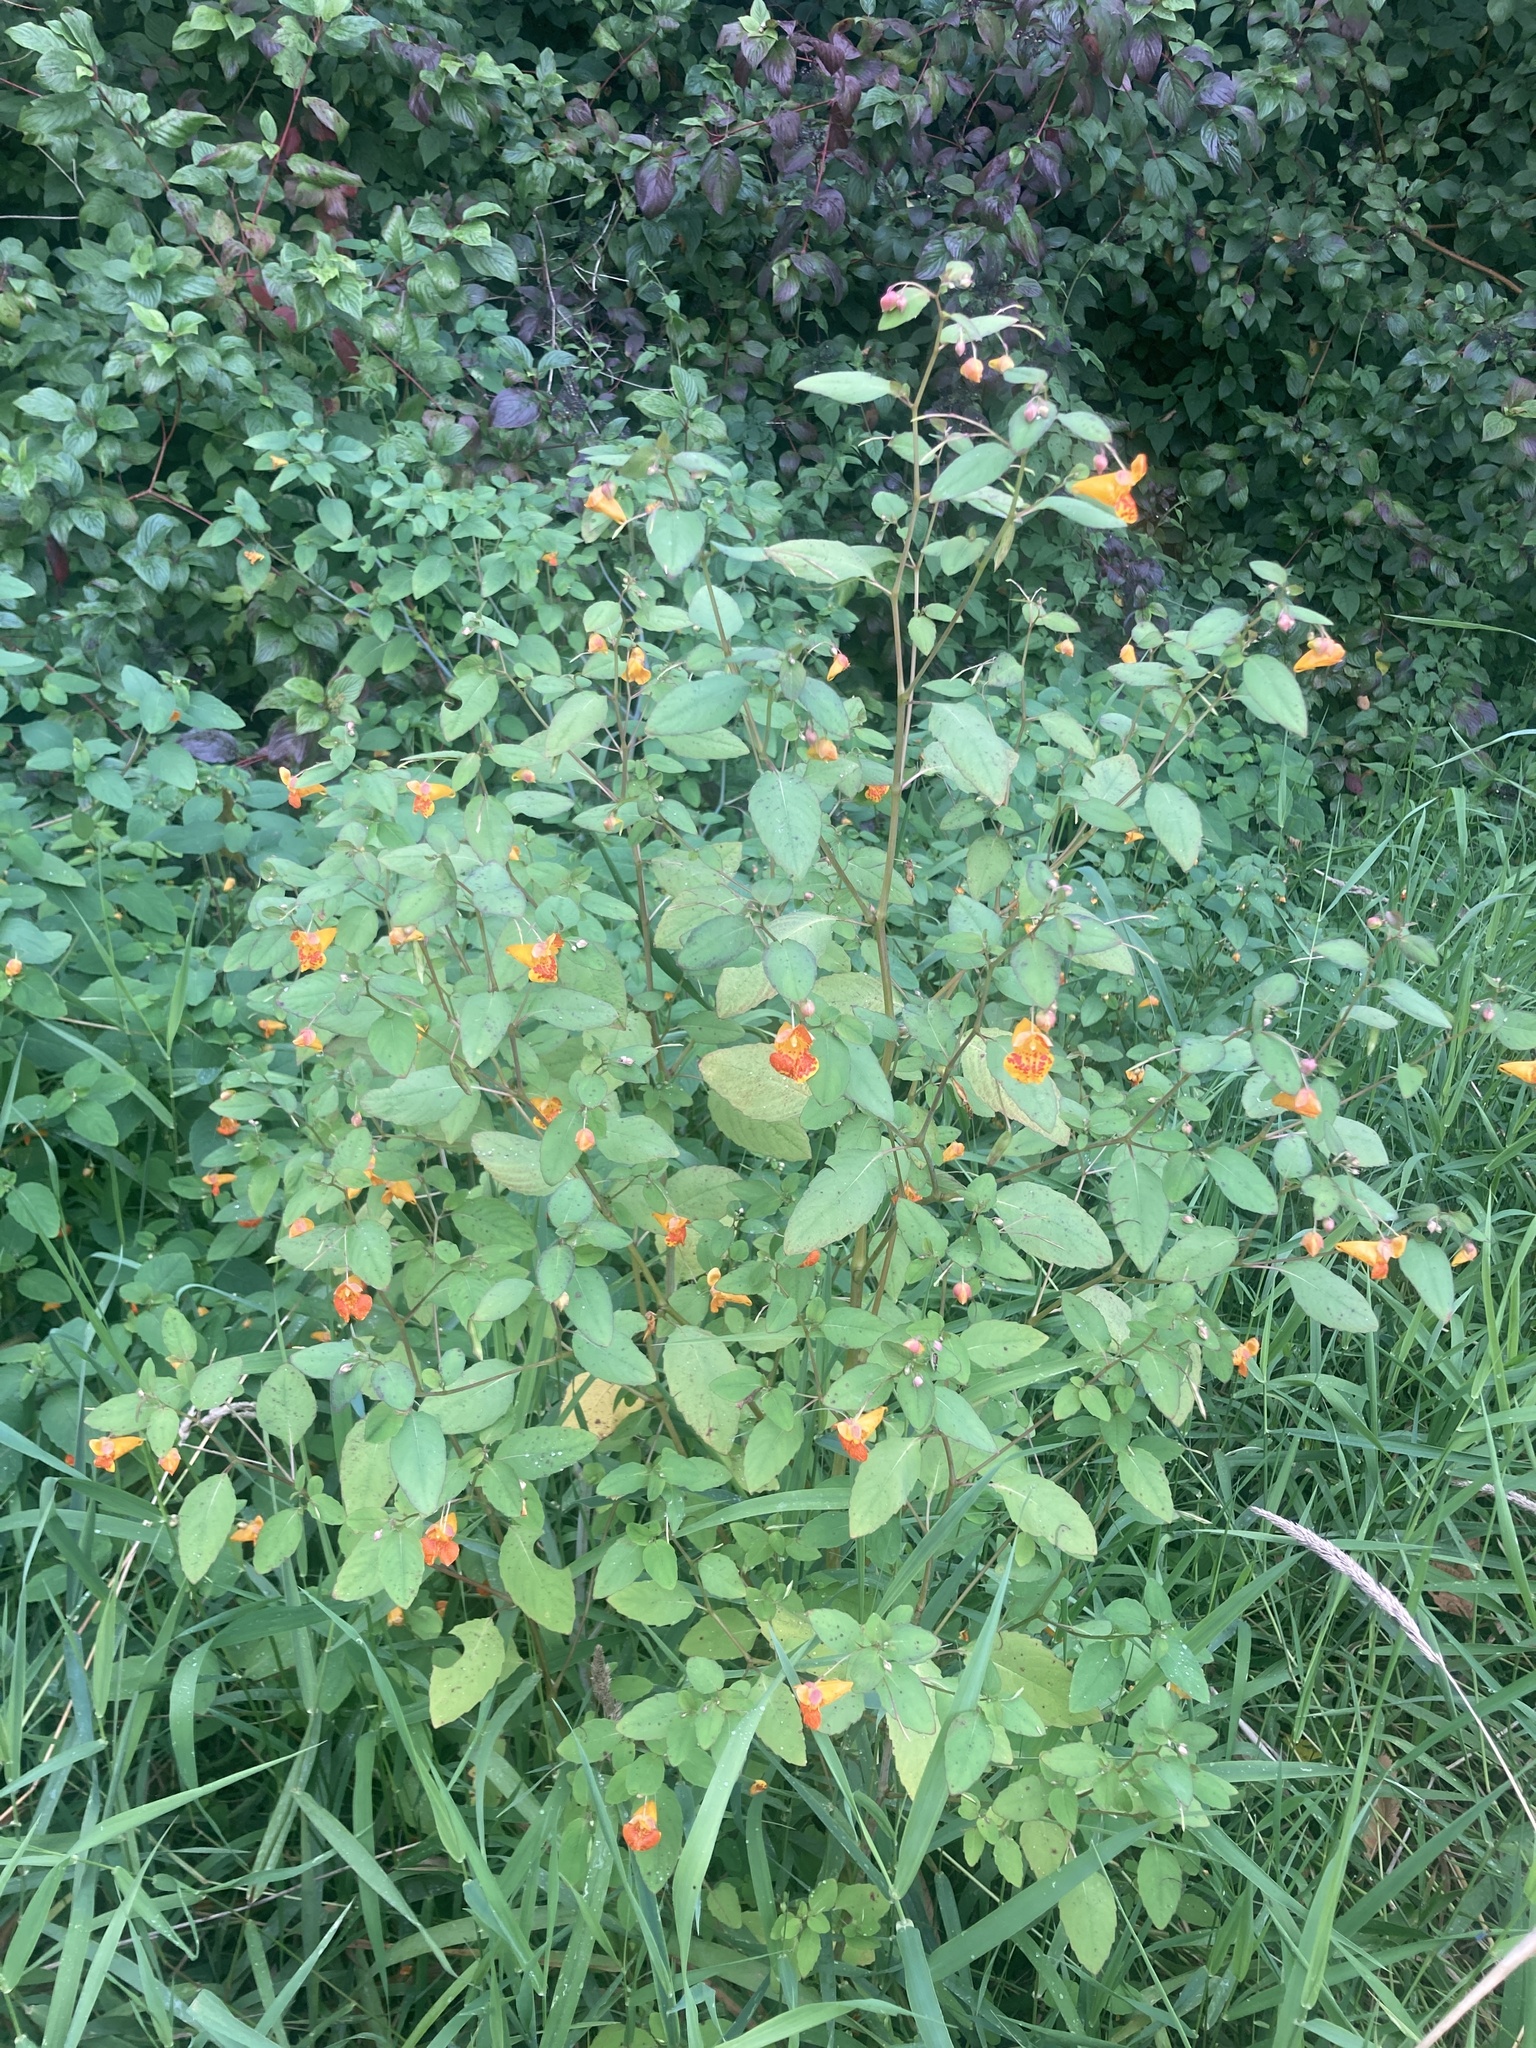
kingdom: Plantae
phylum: Tracheophyta
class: Magnoliopsida
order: Ericales
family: Balsaminaceae
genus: Impatiens
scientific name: Impatiens capensis
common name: Orange balsam
